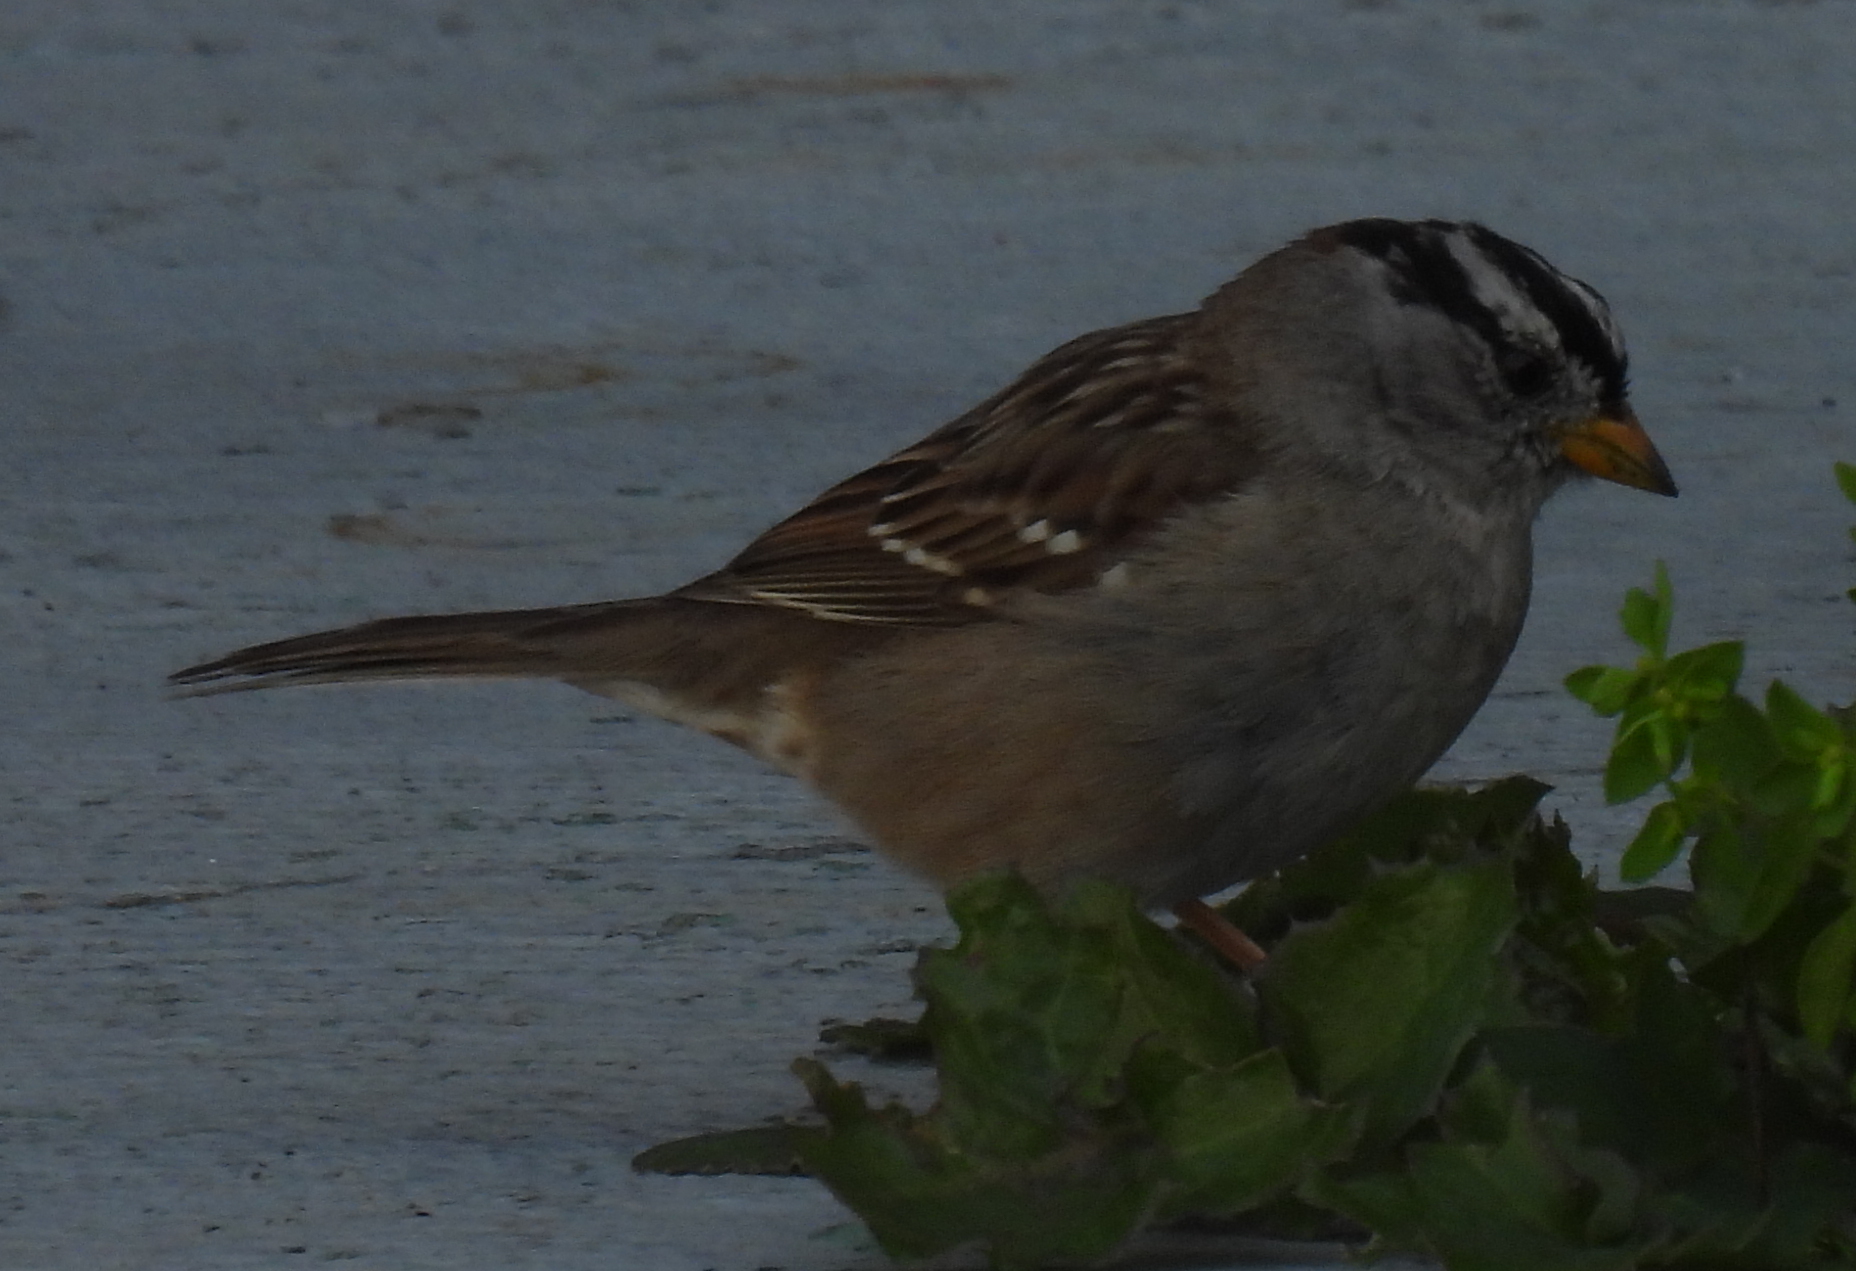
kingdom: Animalia
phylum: Chordata
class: Aves
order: Passeriformes
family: Passerellidae
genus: Zonotrichia
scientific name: Zonotrichia leucophrys
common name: White-crowned sparrow
